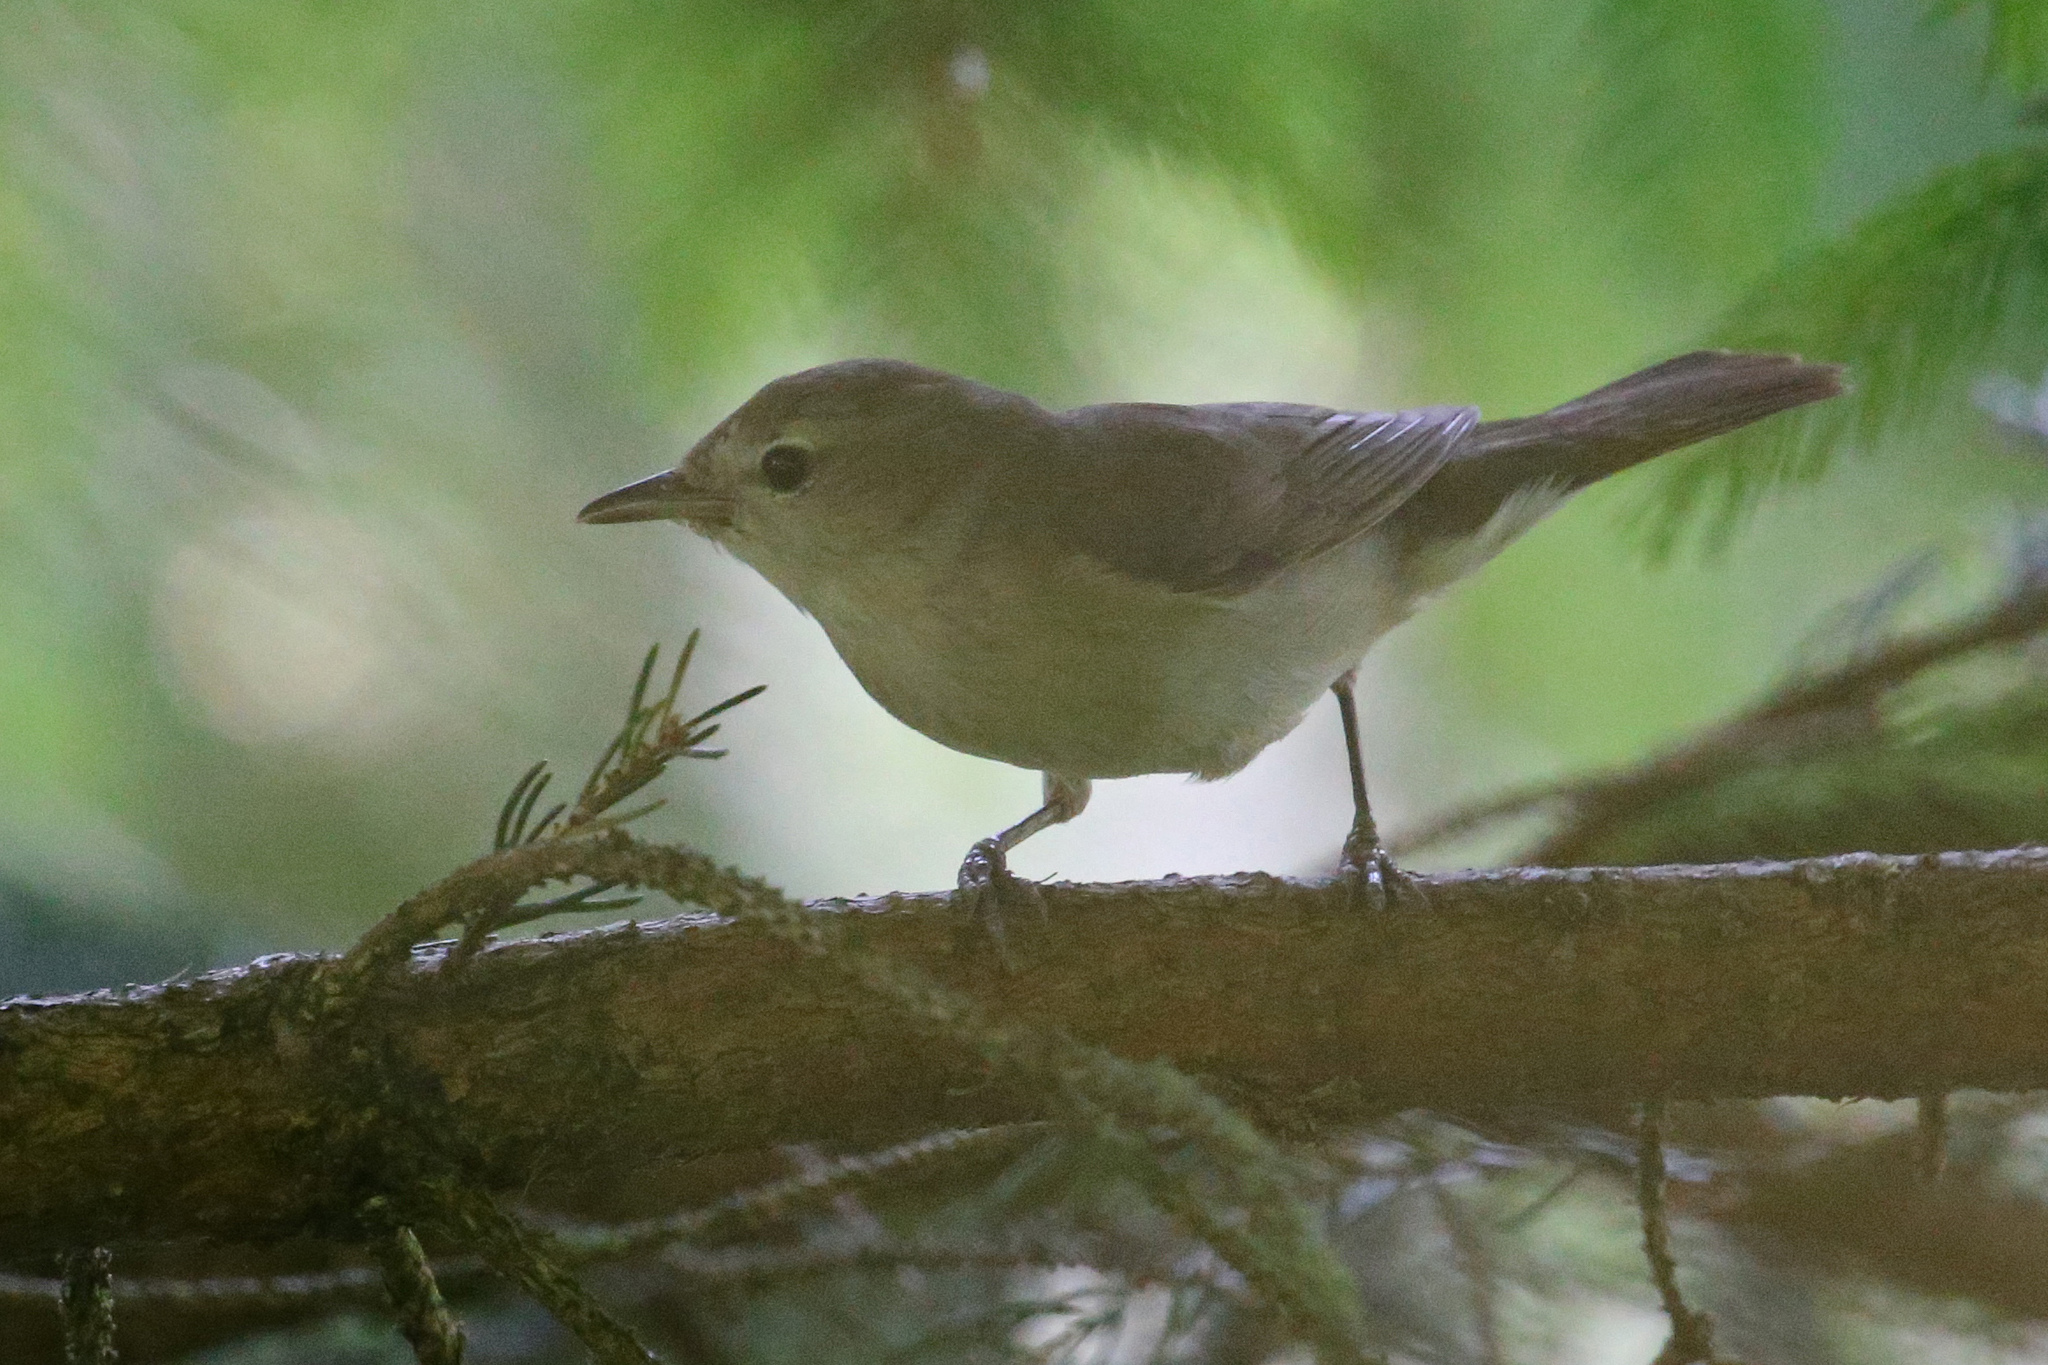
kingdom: Animalia
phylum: Chordata
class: Aves
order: Passeriformes
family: Sylviidae
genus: Sylvia
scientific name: Sylvia borin
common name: Garden warbler
